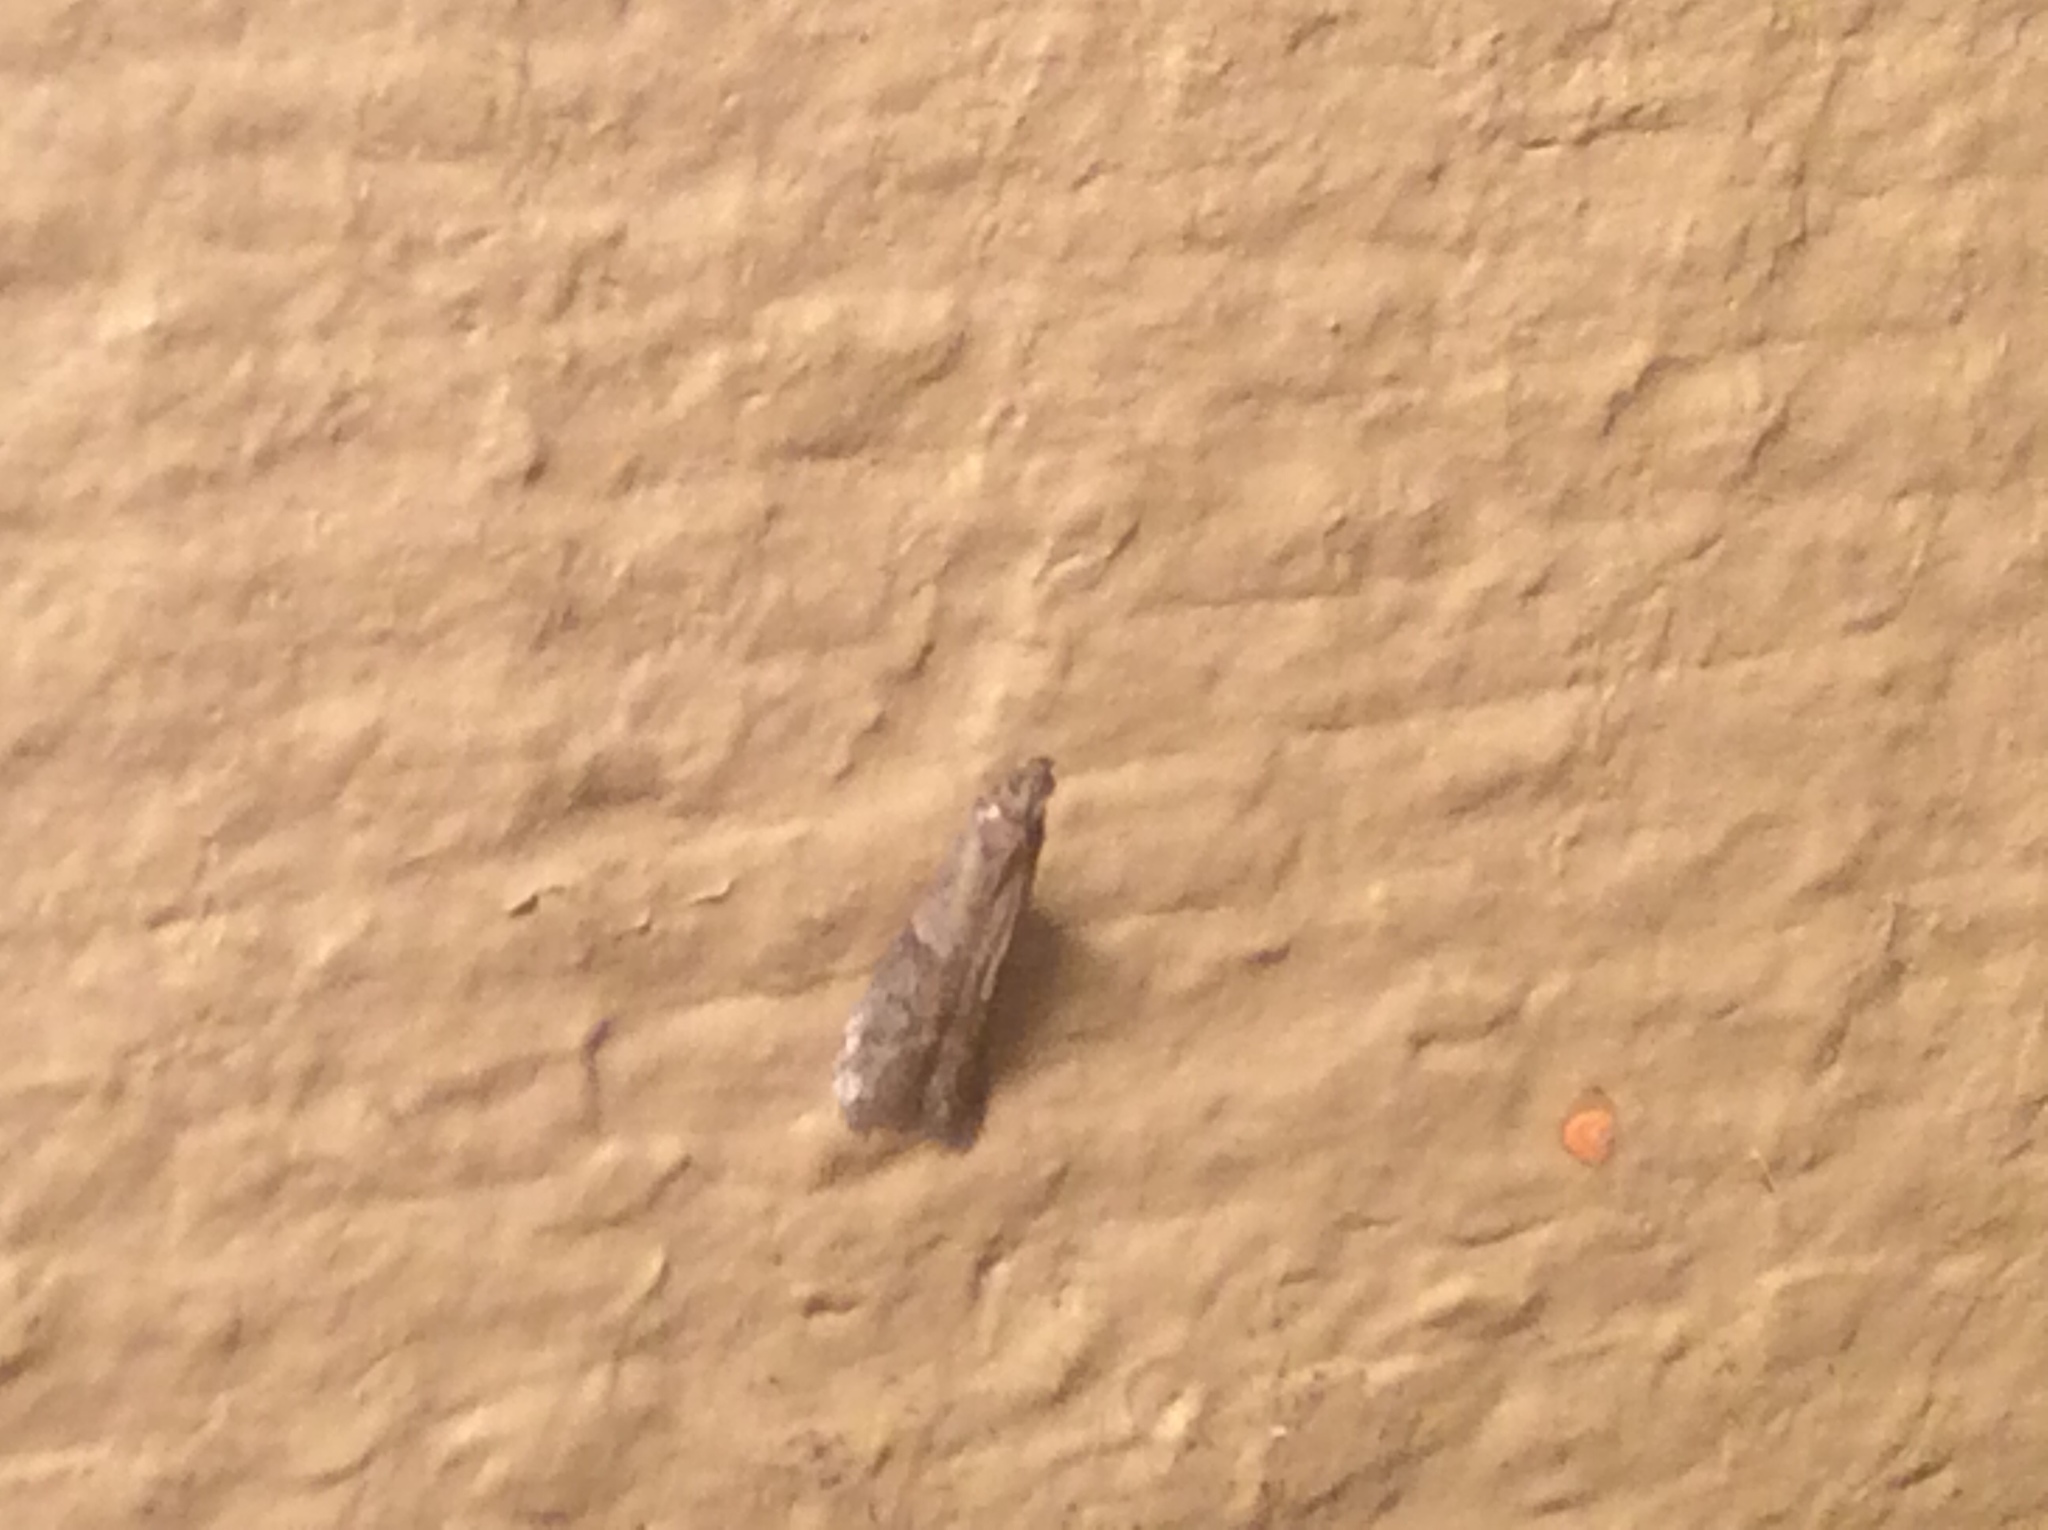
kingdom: Animalia
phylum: Arthropoda
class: Insecta
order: Lepidoptera
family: Pyralidae
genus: Ephestiodes
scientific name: Ephestiodes infimella
